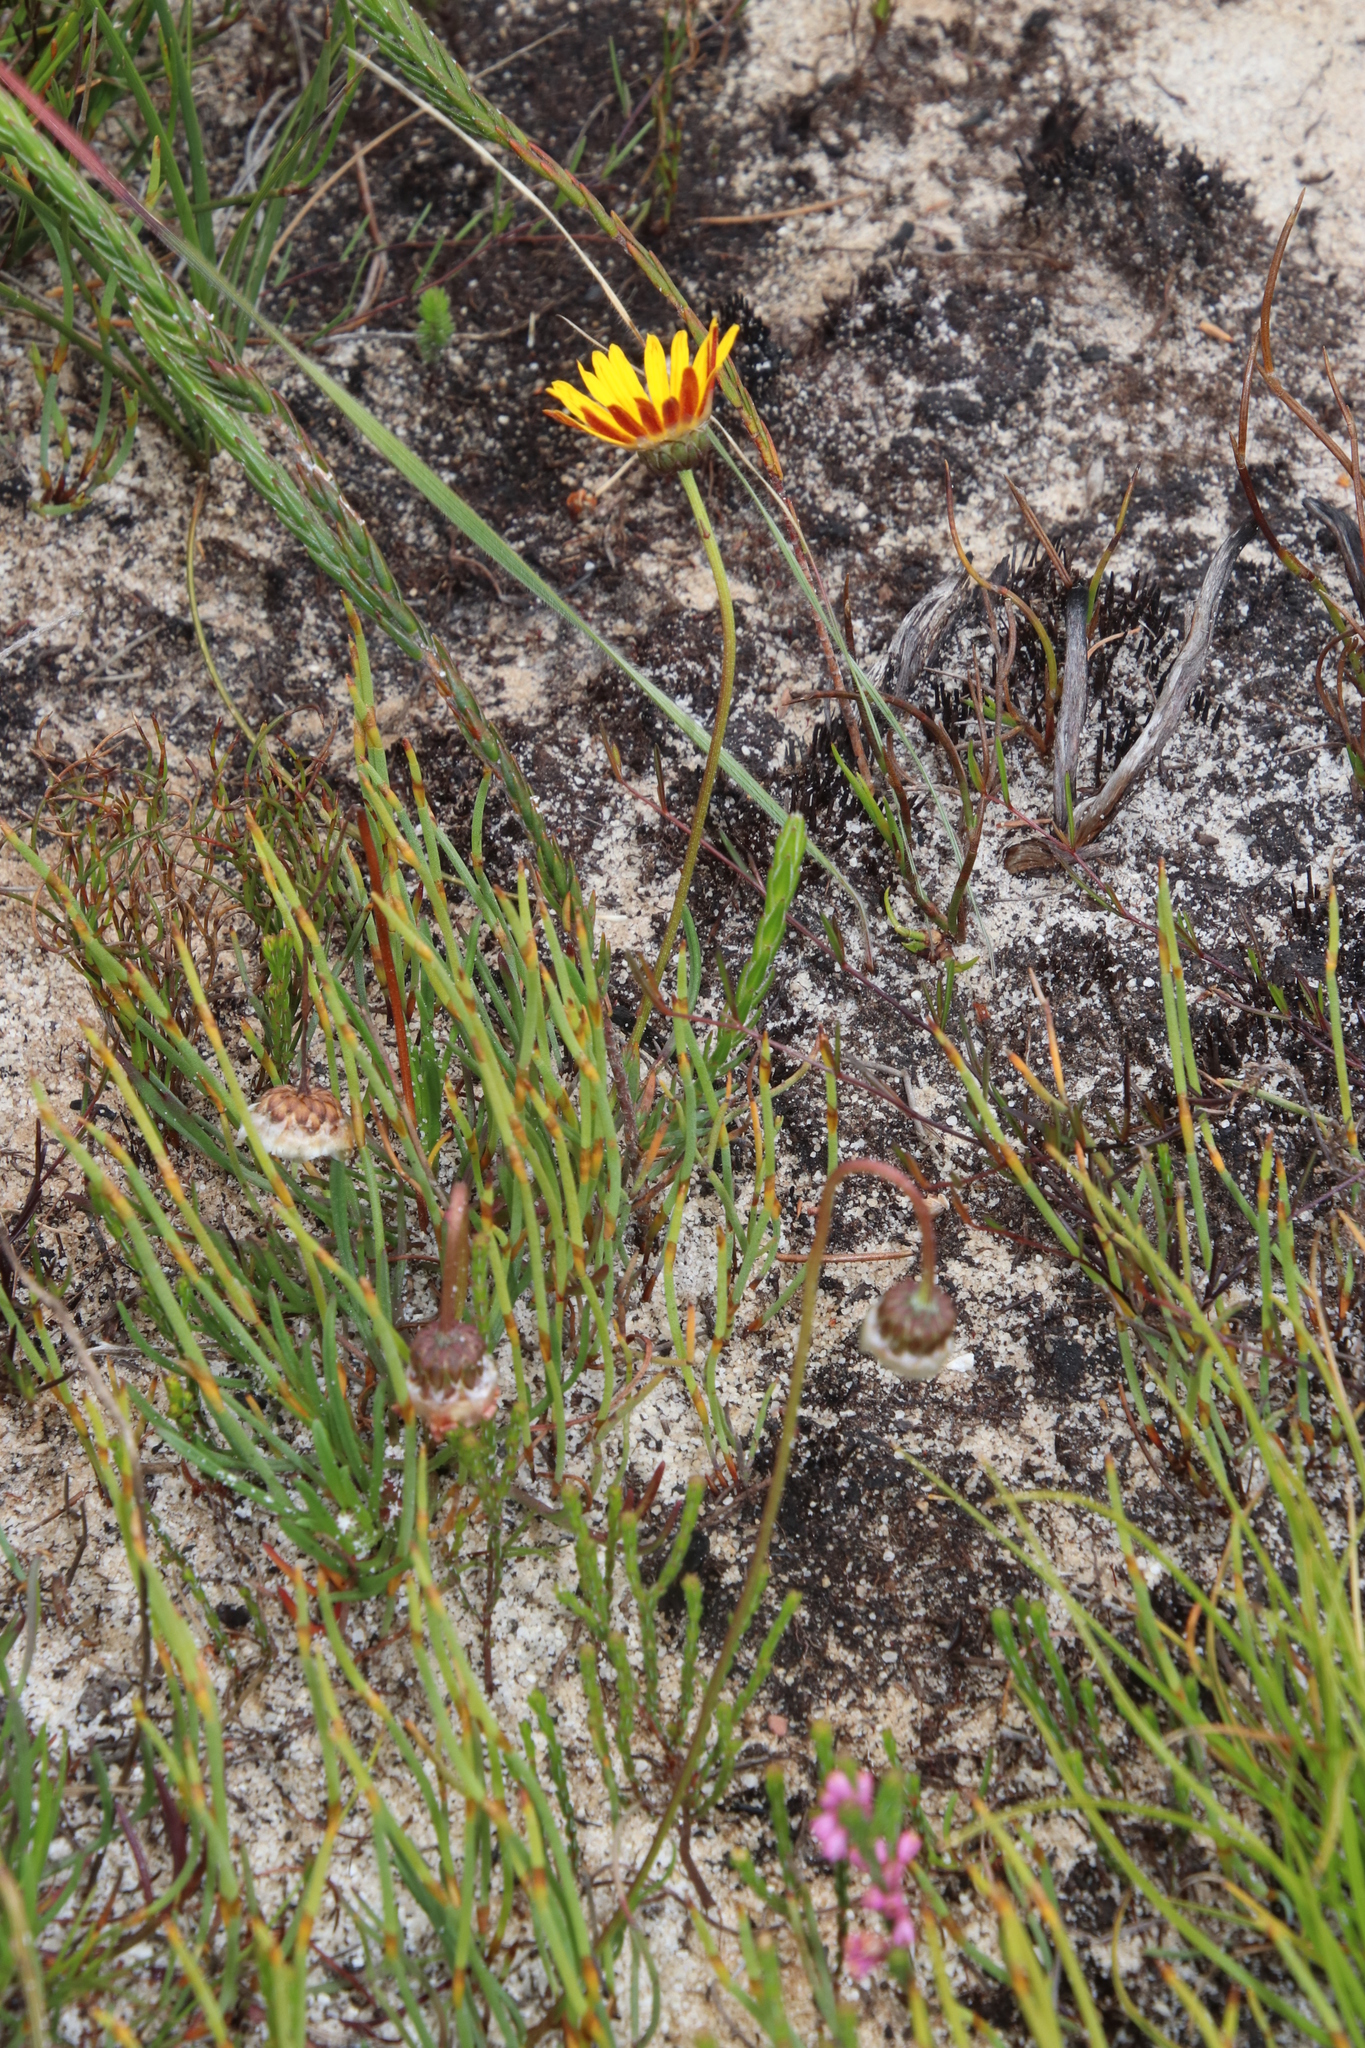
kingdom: Plantae
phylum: Tracheophyta
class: Magnoliopsida
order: Asterales
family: Asteraceae
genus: Ursinia
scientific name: Ursinia paleacea
